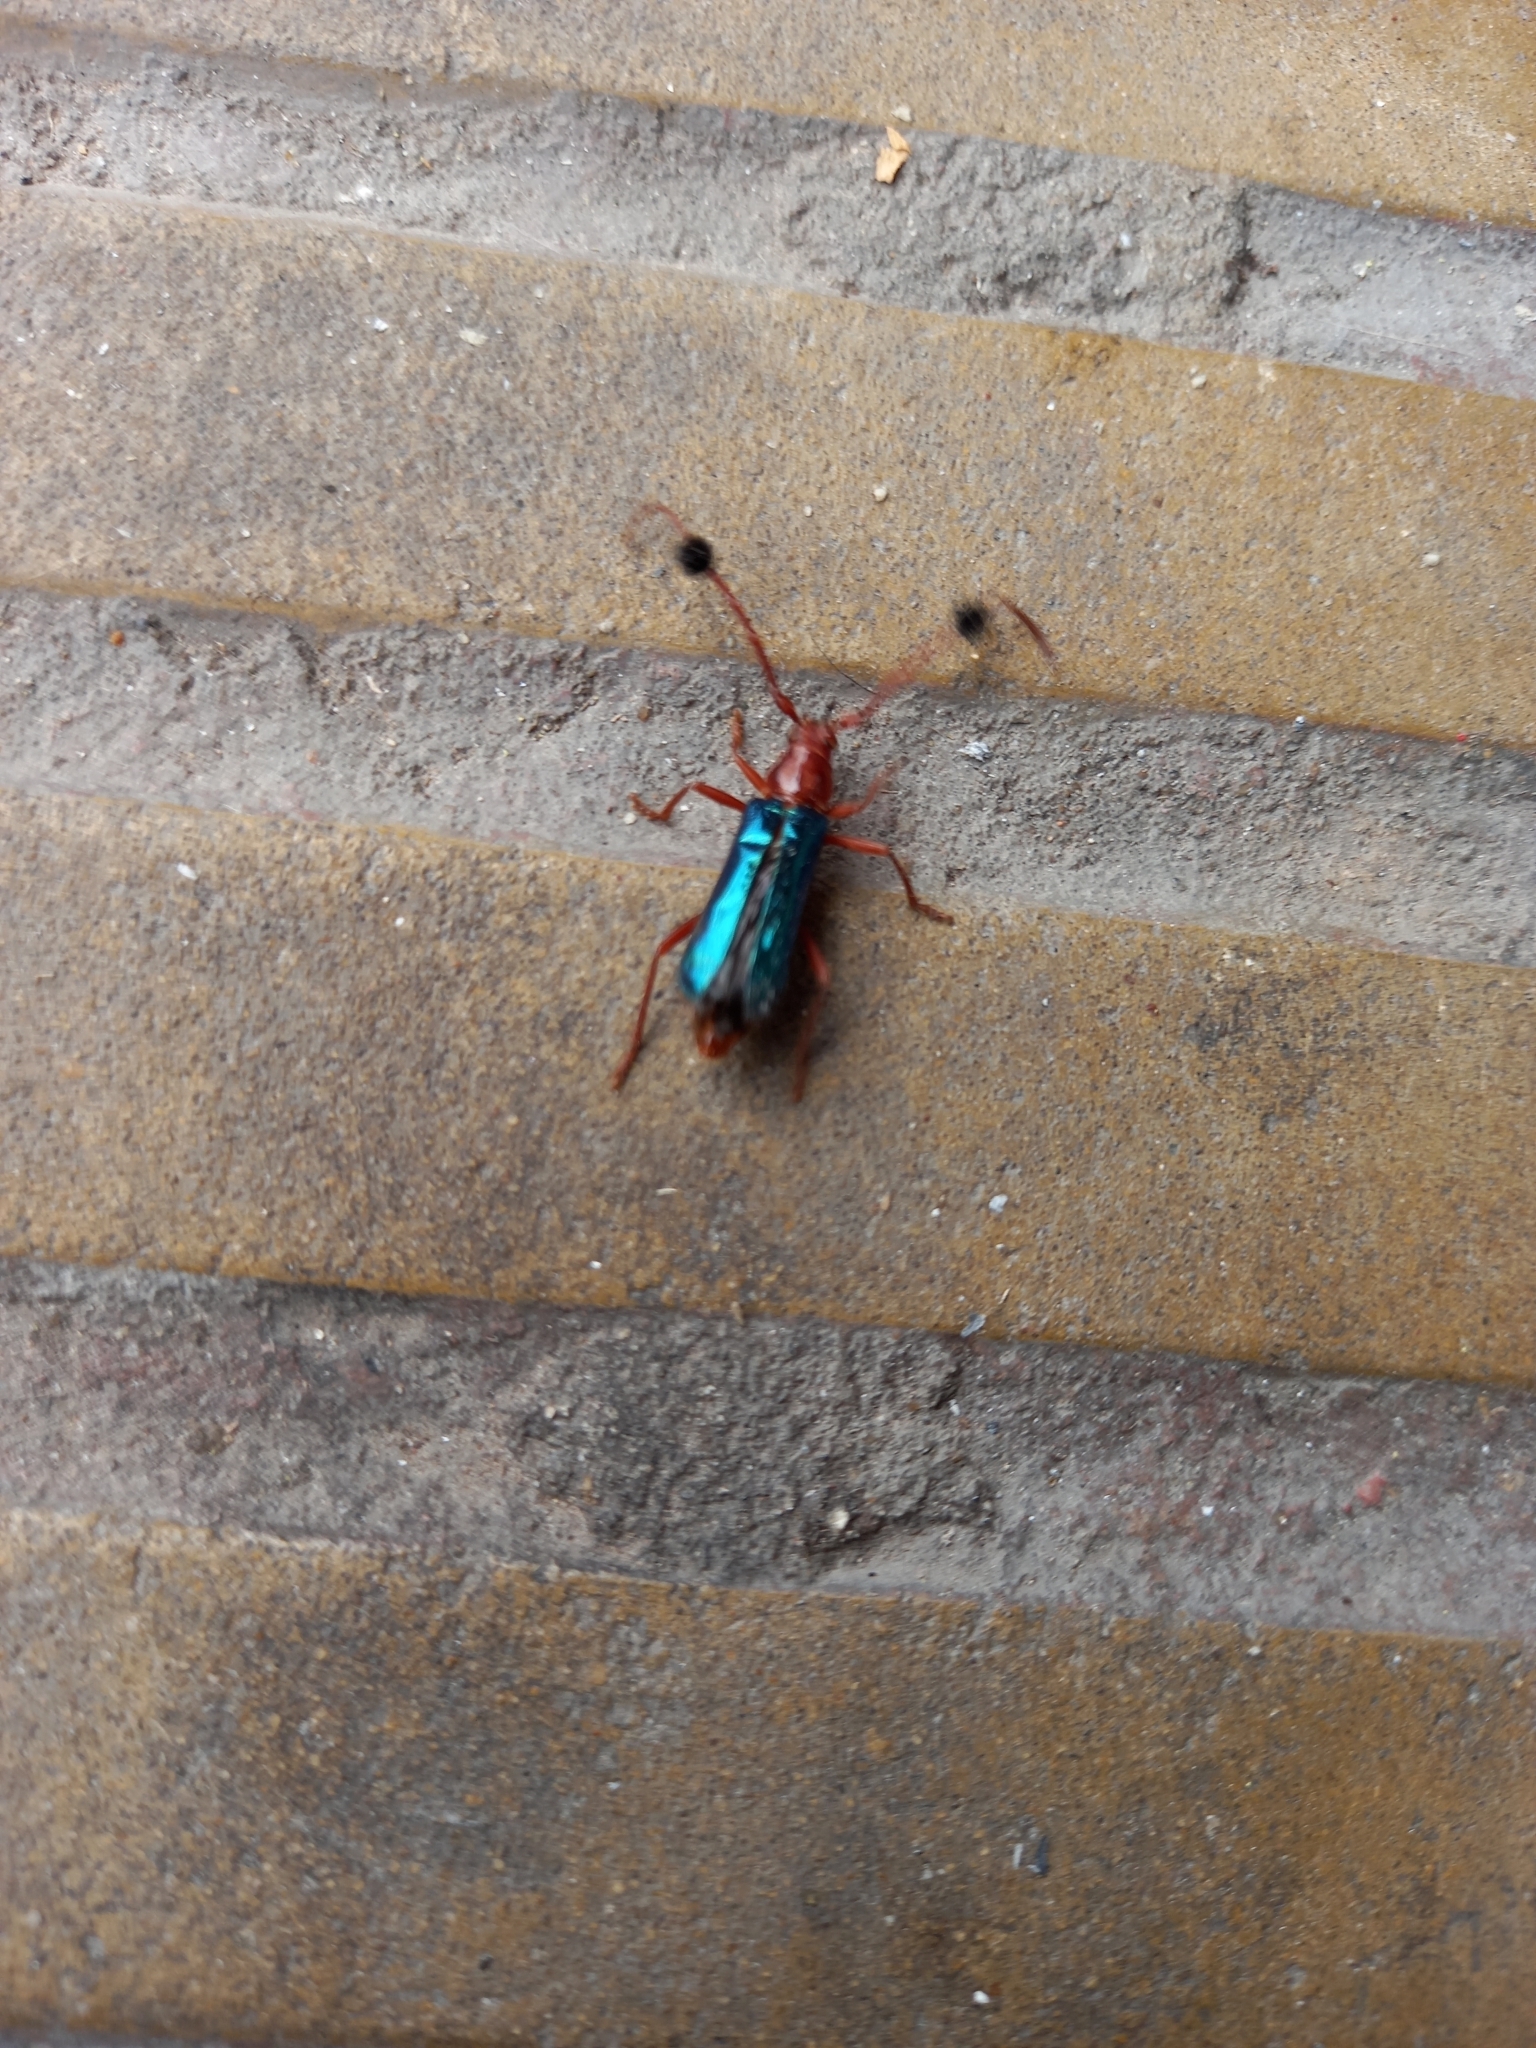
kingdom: Animalia
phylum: Arthropoda
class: Insecta
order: Coleoptera
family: Cerambycidae
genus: Compsocerus
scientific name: Compsocerus violaceus
